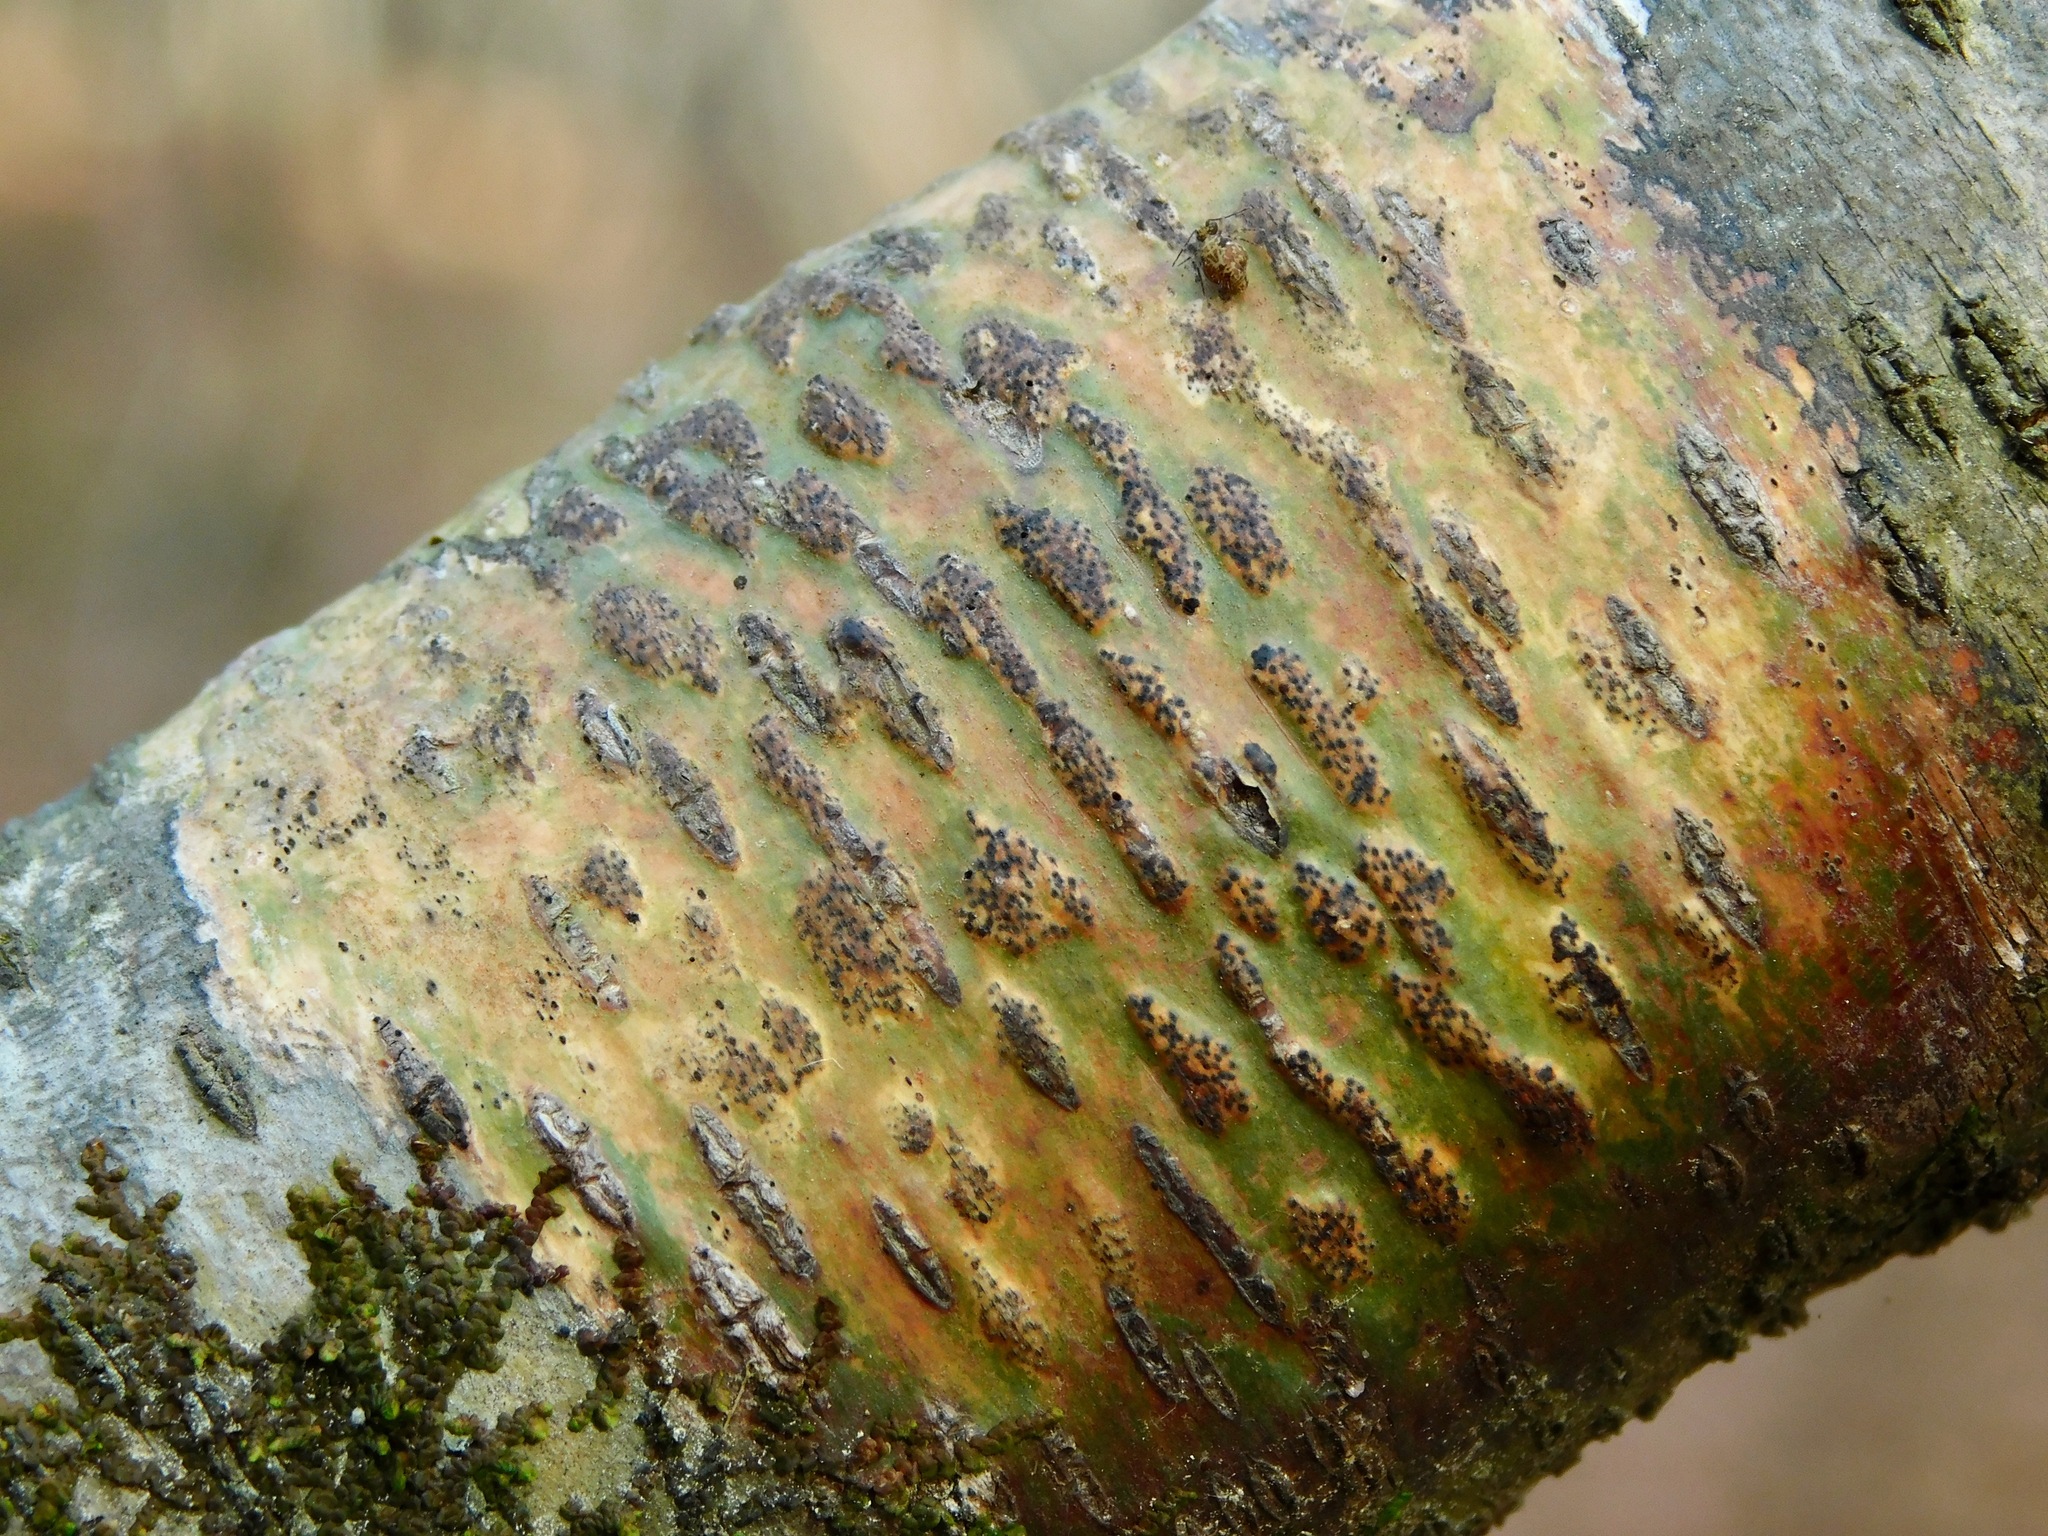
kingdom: Fungi
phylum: Ascomycota
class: Dothideomycetes
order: Trypetheliales
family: Trypetheliaceae
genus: Viridothelium
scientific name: Viridothelium virens
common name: Speckled blister lichen
